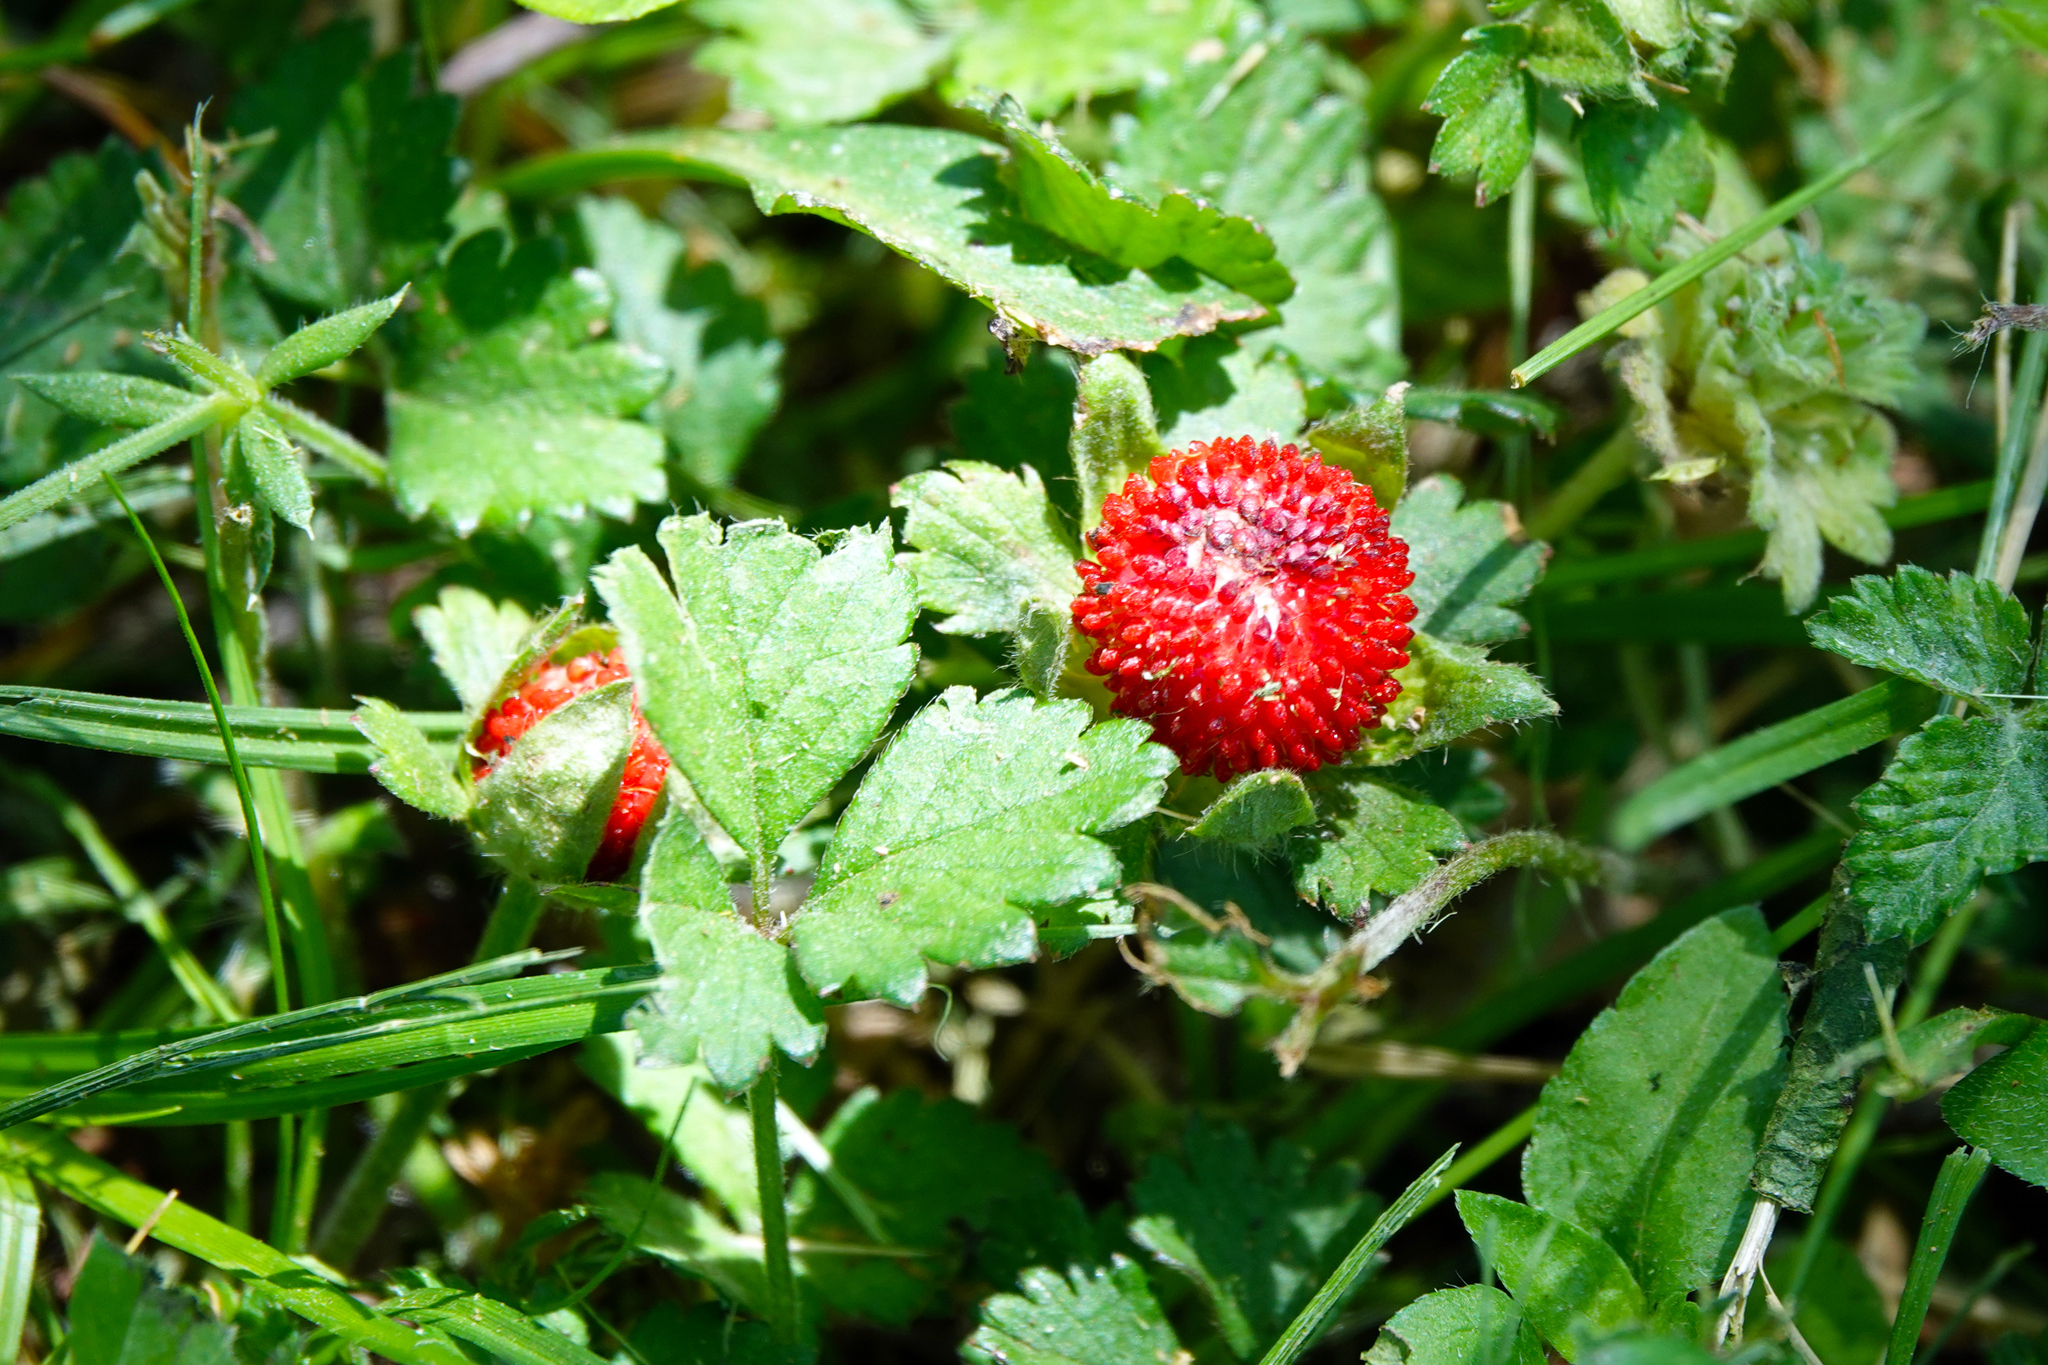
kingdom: Plantae
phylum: Tracheophyta
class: Magnoliopsida
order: Rosales
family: Rosaceae
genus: Potentilla
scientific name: Potentilla indica
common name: Yellow-flowered strawberry
